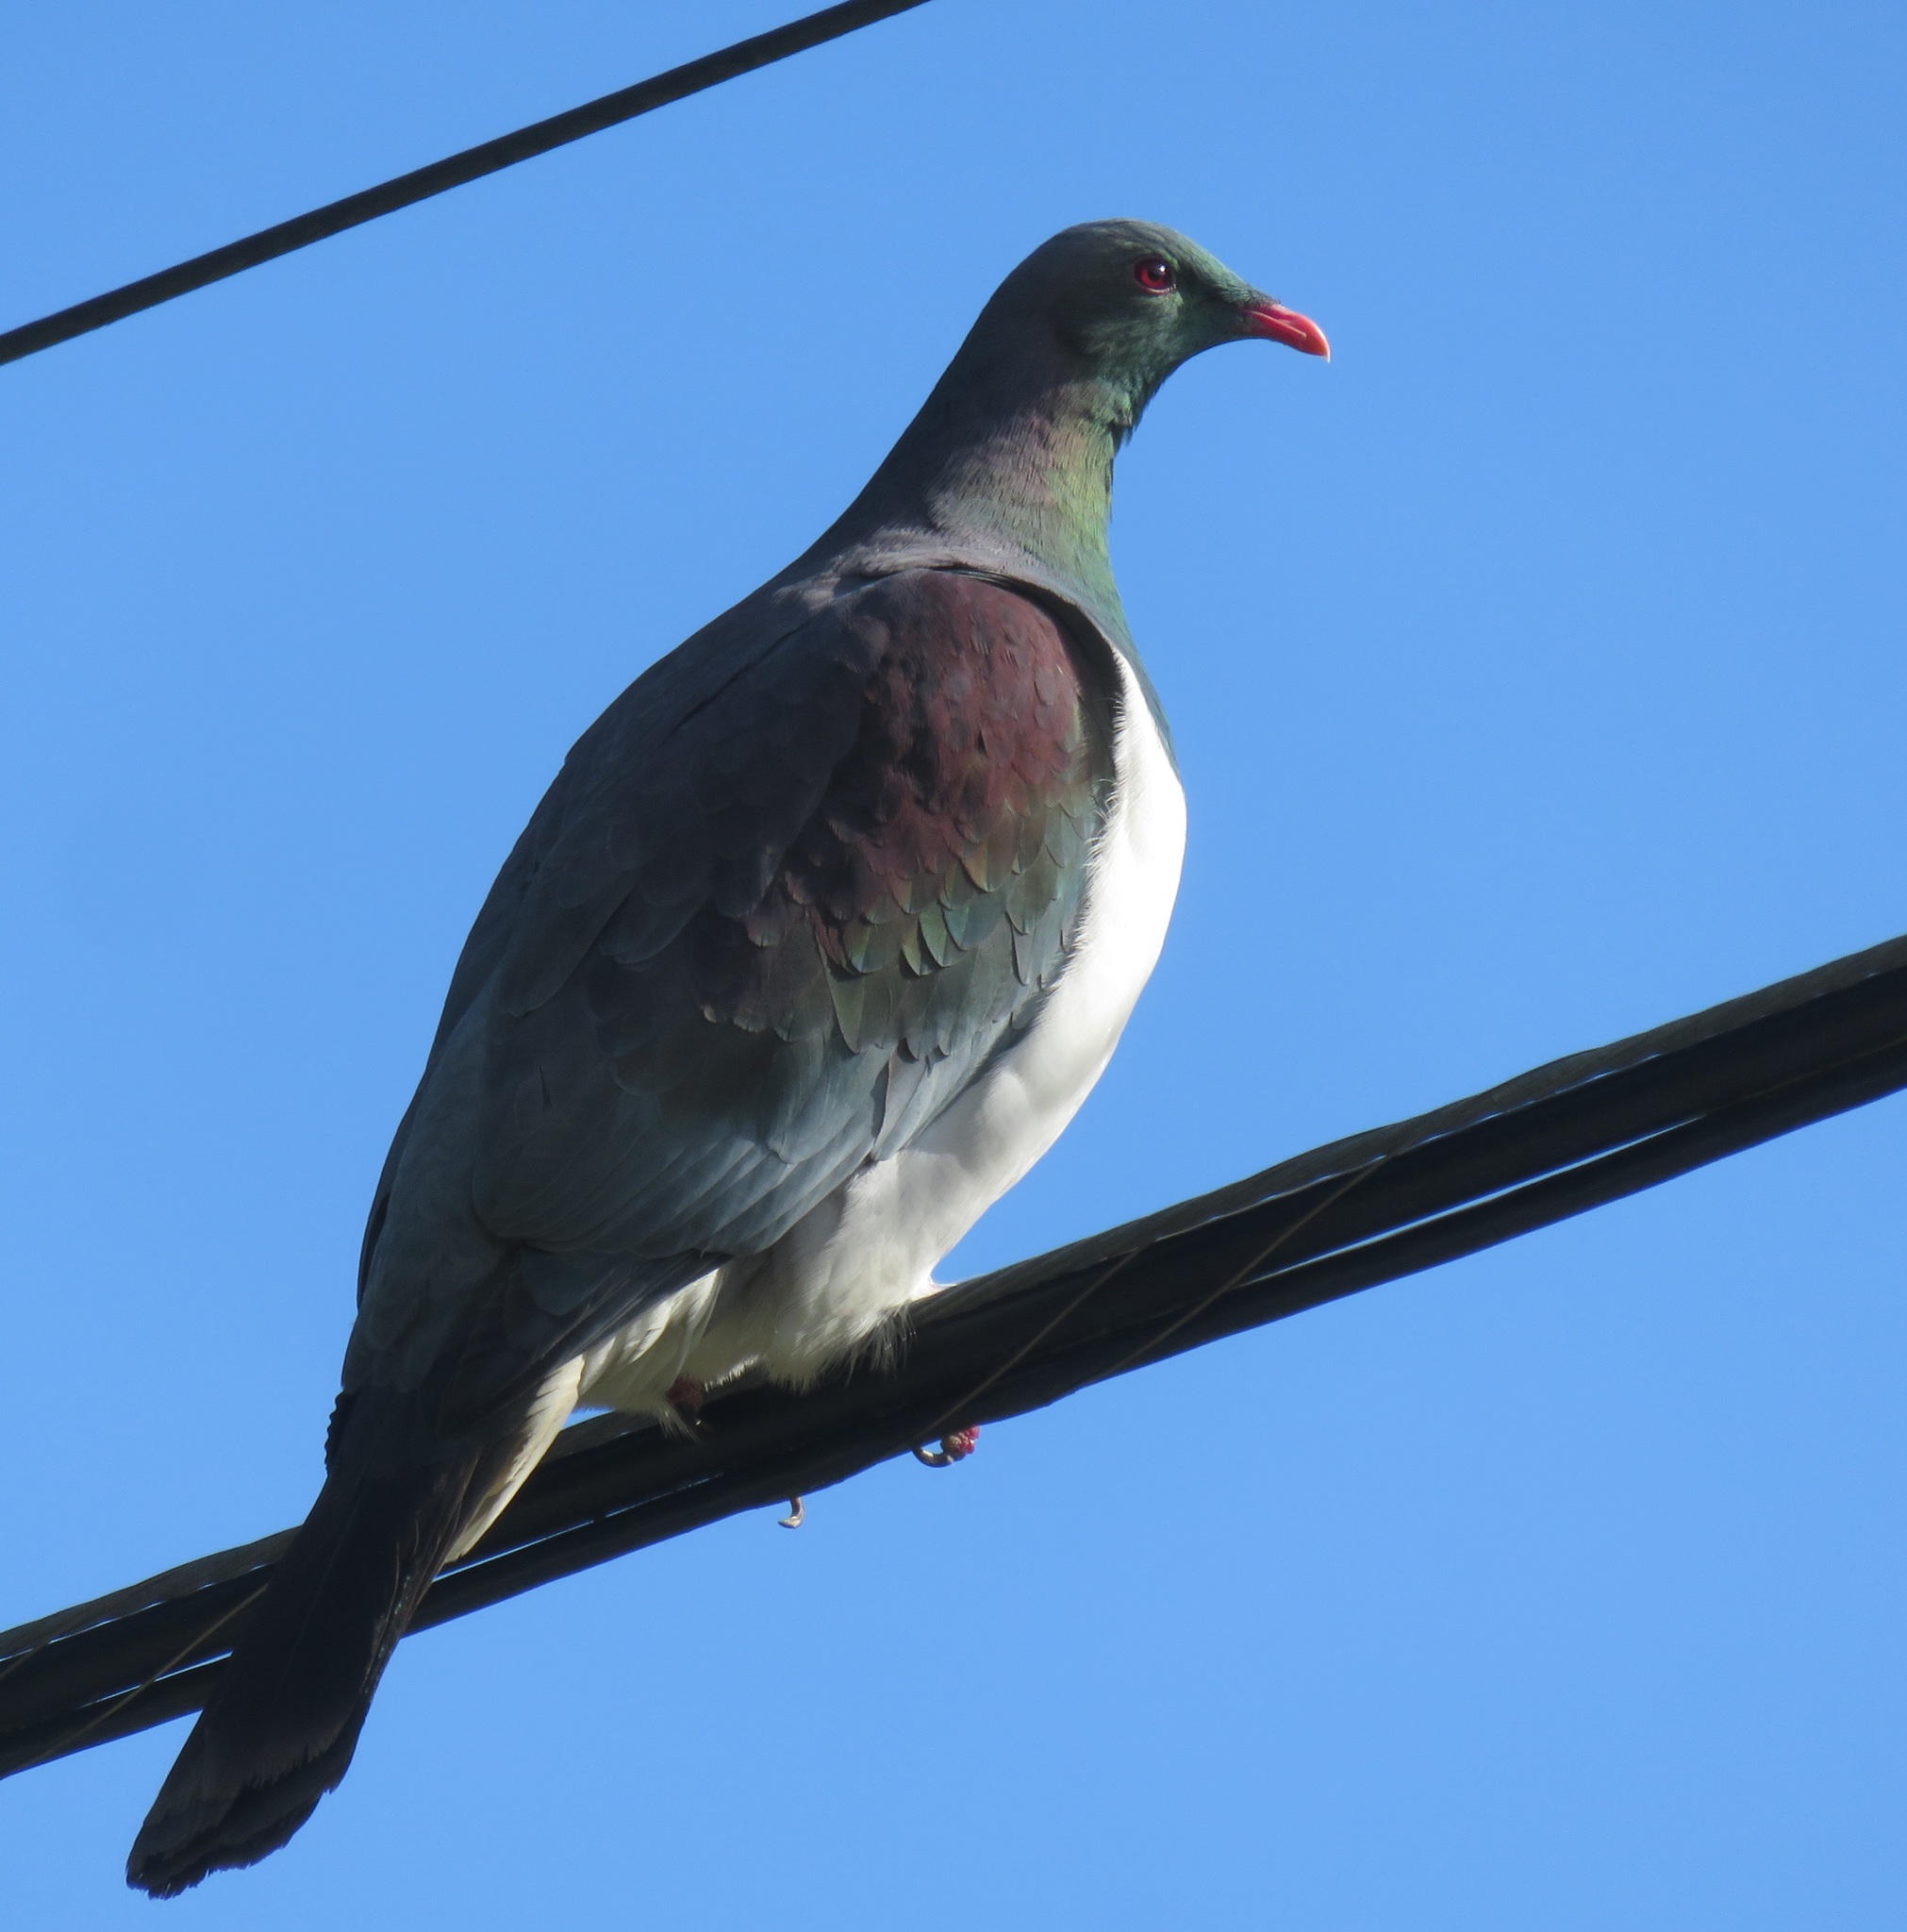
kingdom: Animalia
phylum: Chordata
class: Aves
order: Columbiformes
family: Columbidae
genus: Hemiphaga
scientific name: Hemiphaga novaeseelandiae
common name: New zealand pigeon
